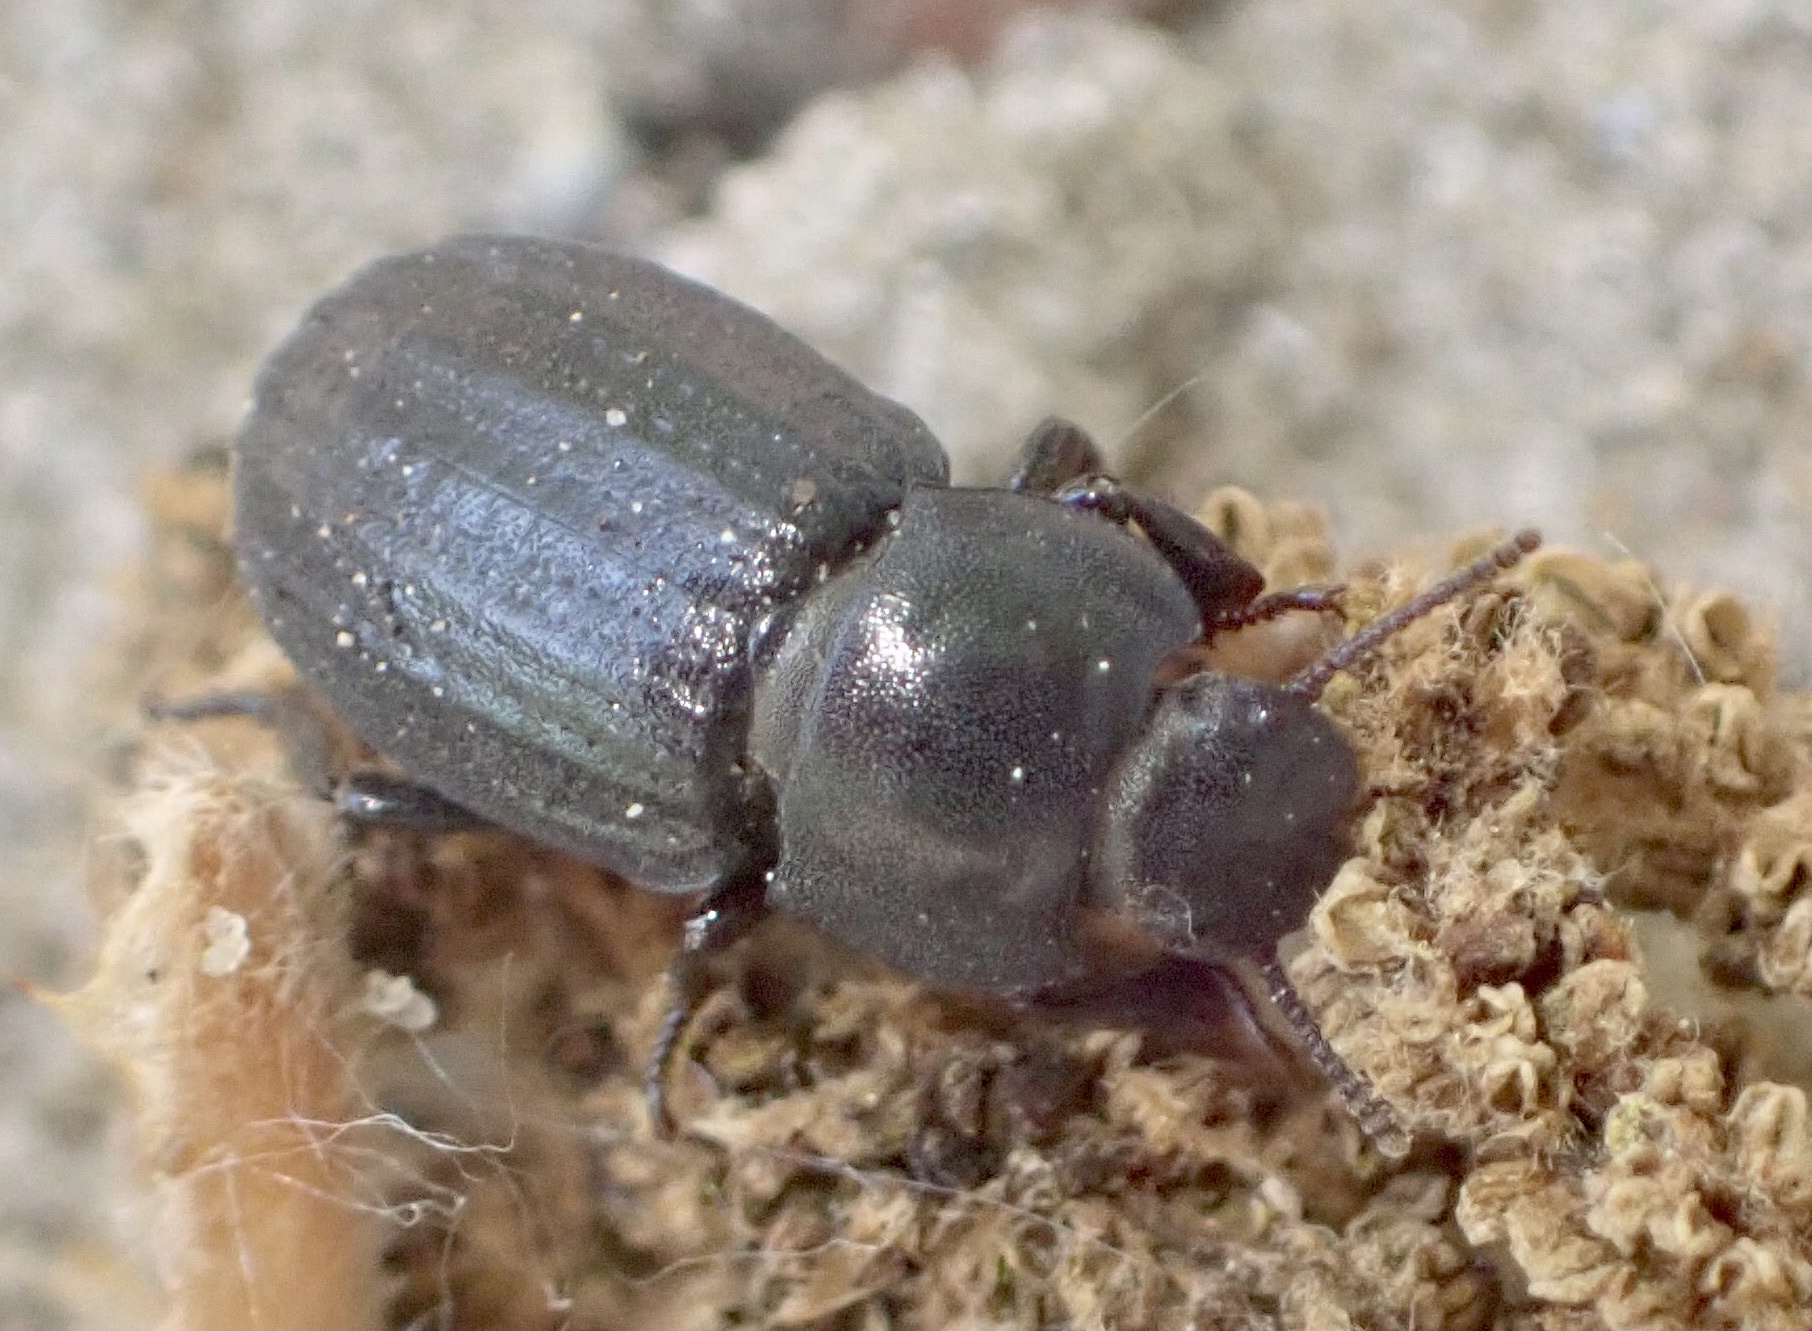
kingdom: Animalia
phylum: Arthropoda
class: Insecta
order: Coleoptera
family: Tenebrionidae
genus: Phylan
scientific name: Phylan gibbus
